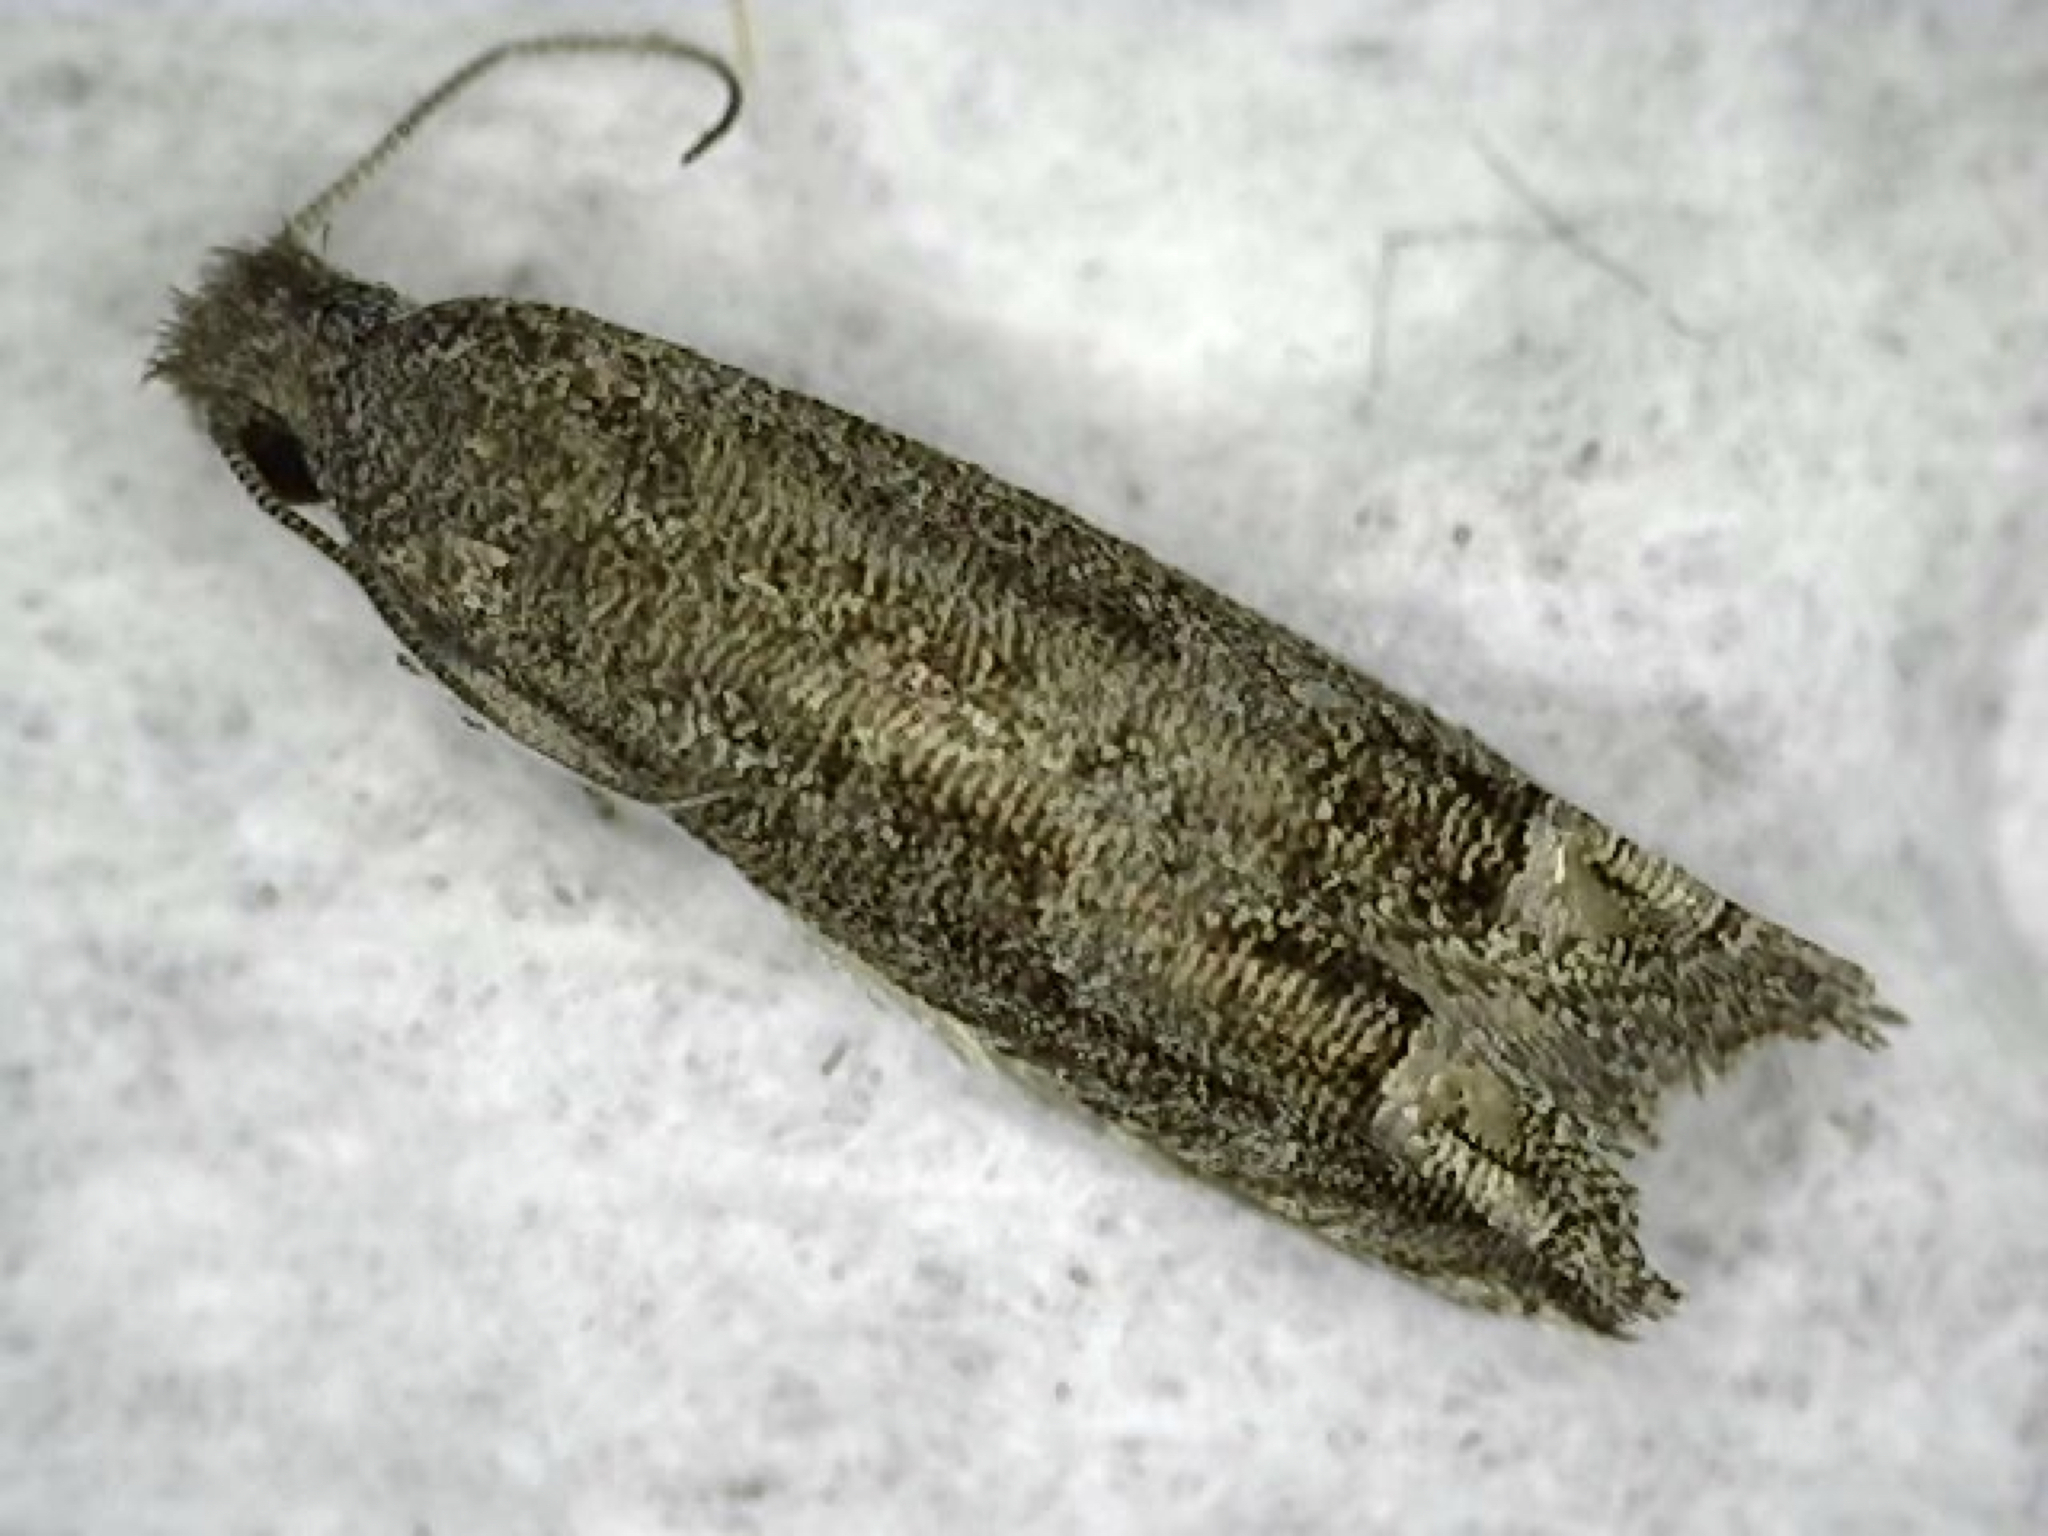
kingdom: Animalia
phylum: Arthropoda
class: Insecta
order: Lepidoptera
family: Tortricidae
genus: Epiblema
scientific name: Epiblema strenuana
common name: Ragweed borer moth
